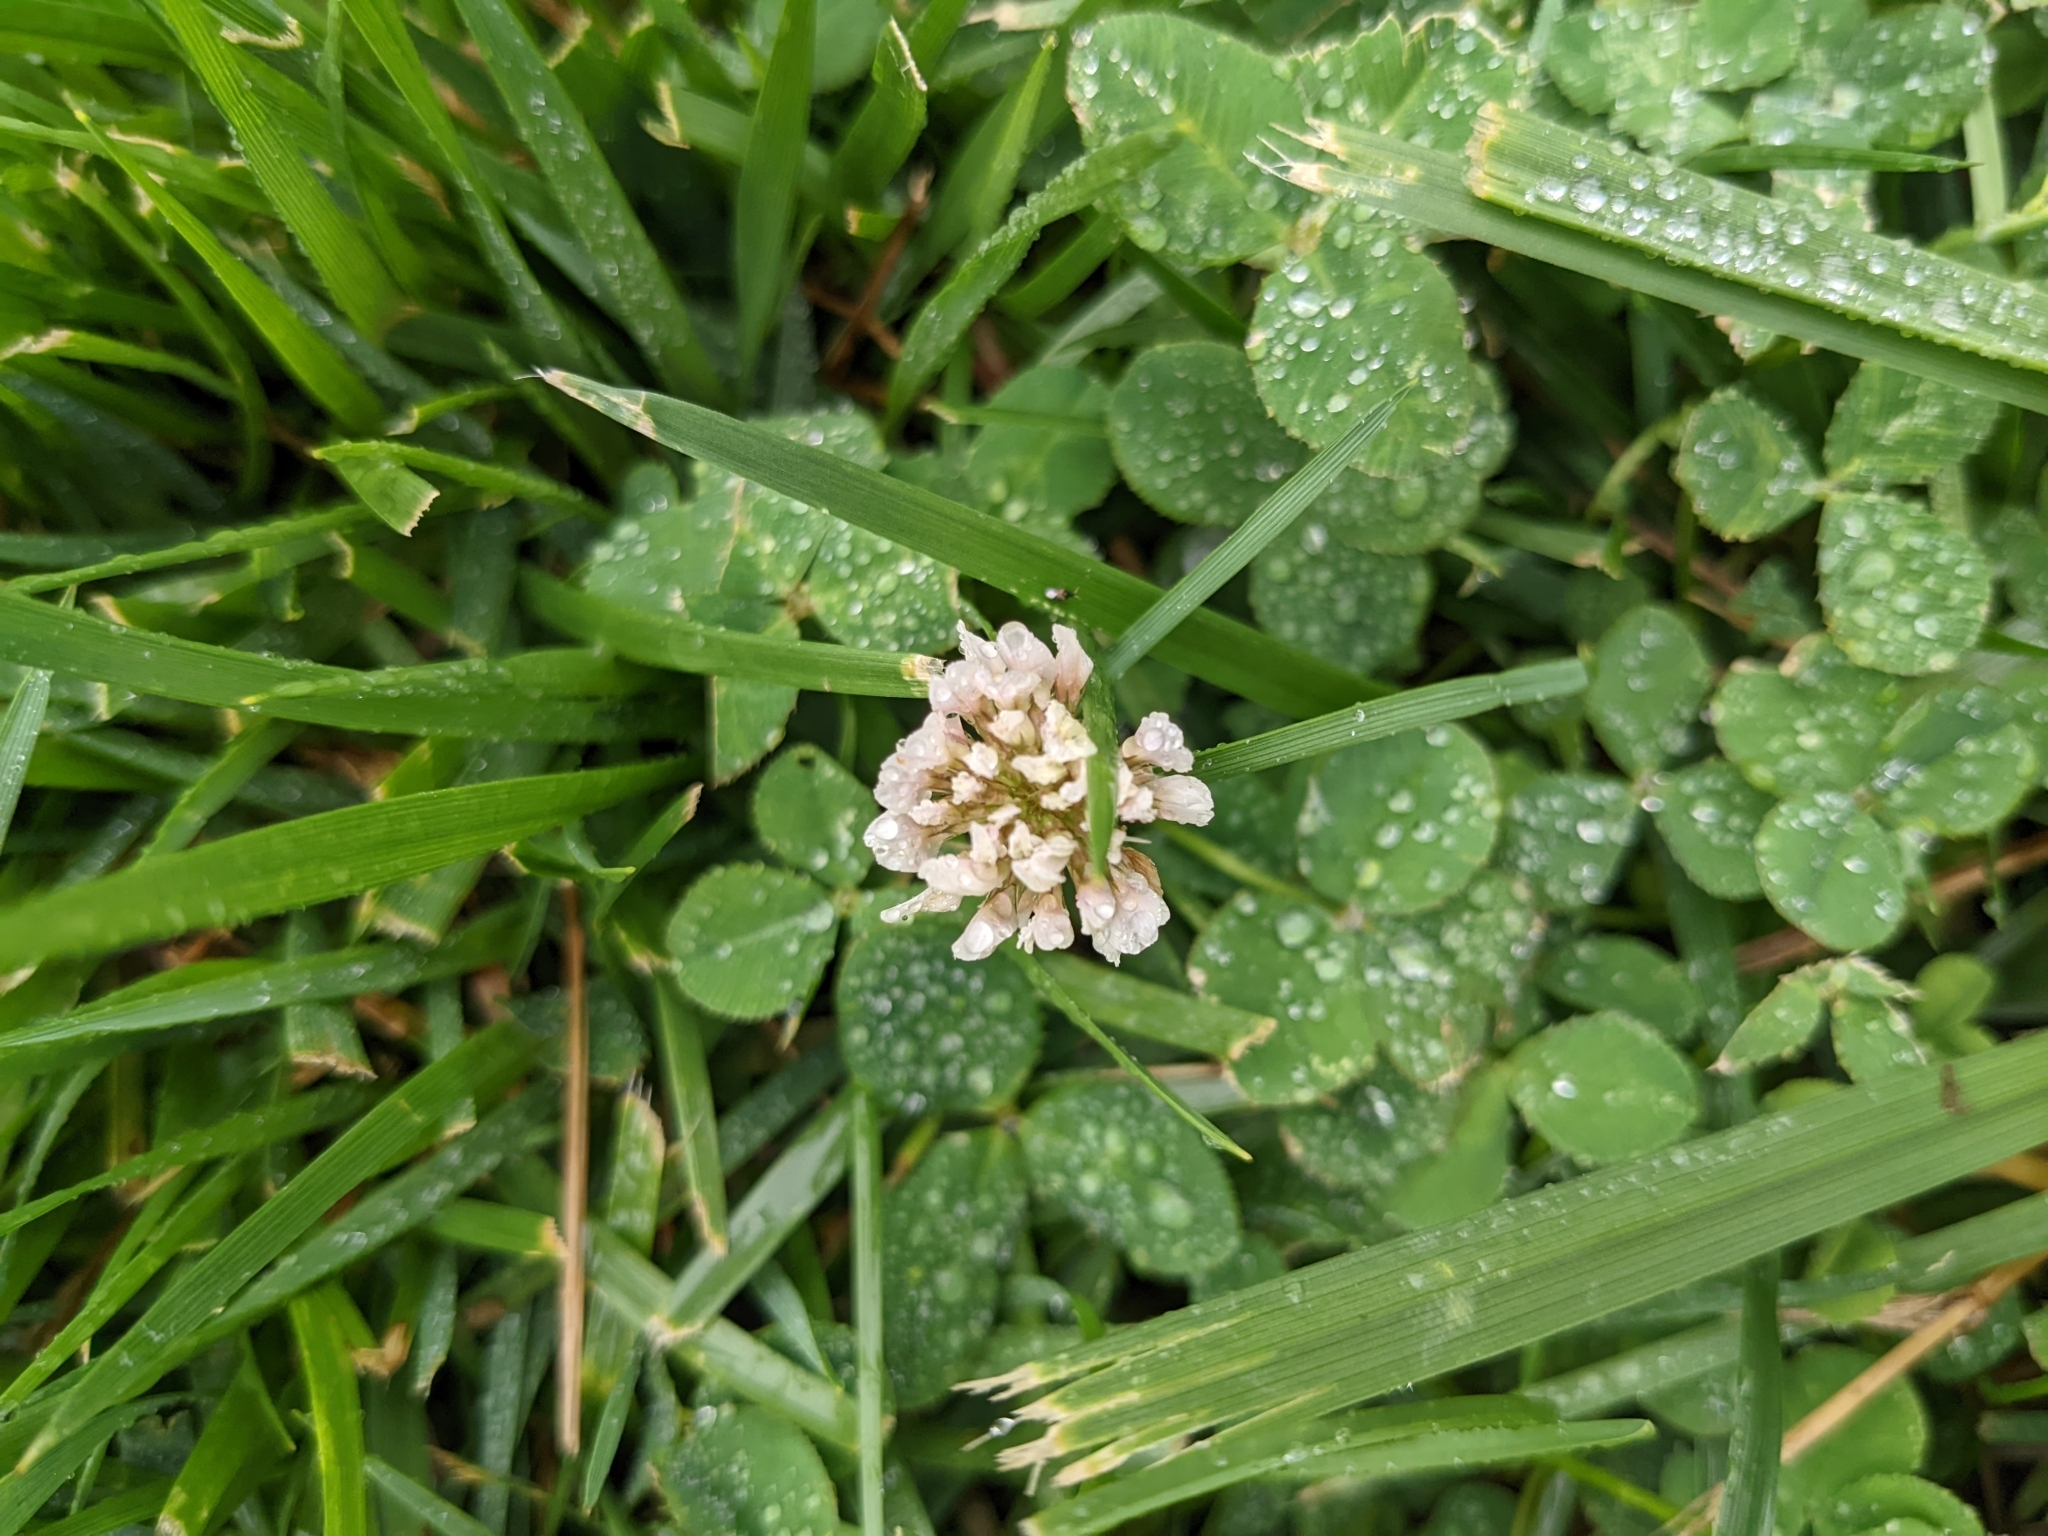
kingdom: Plantae
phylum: Tracheophyta
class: Magnoliopsida
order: Fabales
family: Fabaceae
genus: Trifolium
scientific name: Trifolium repens
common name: White clover
